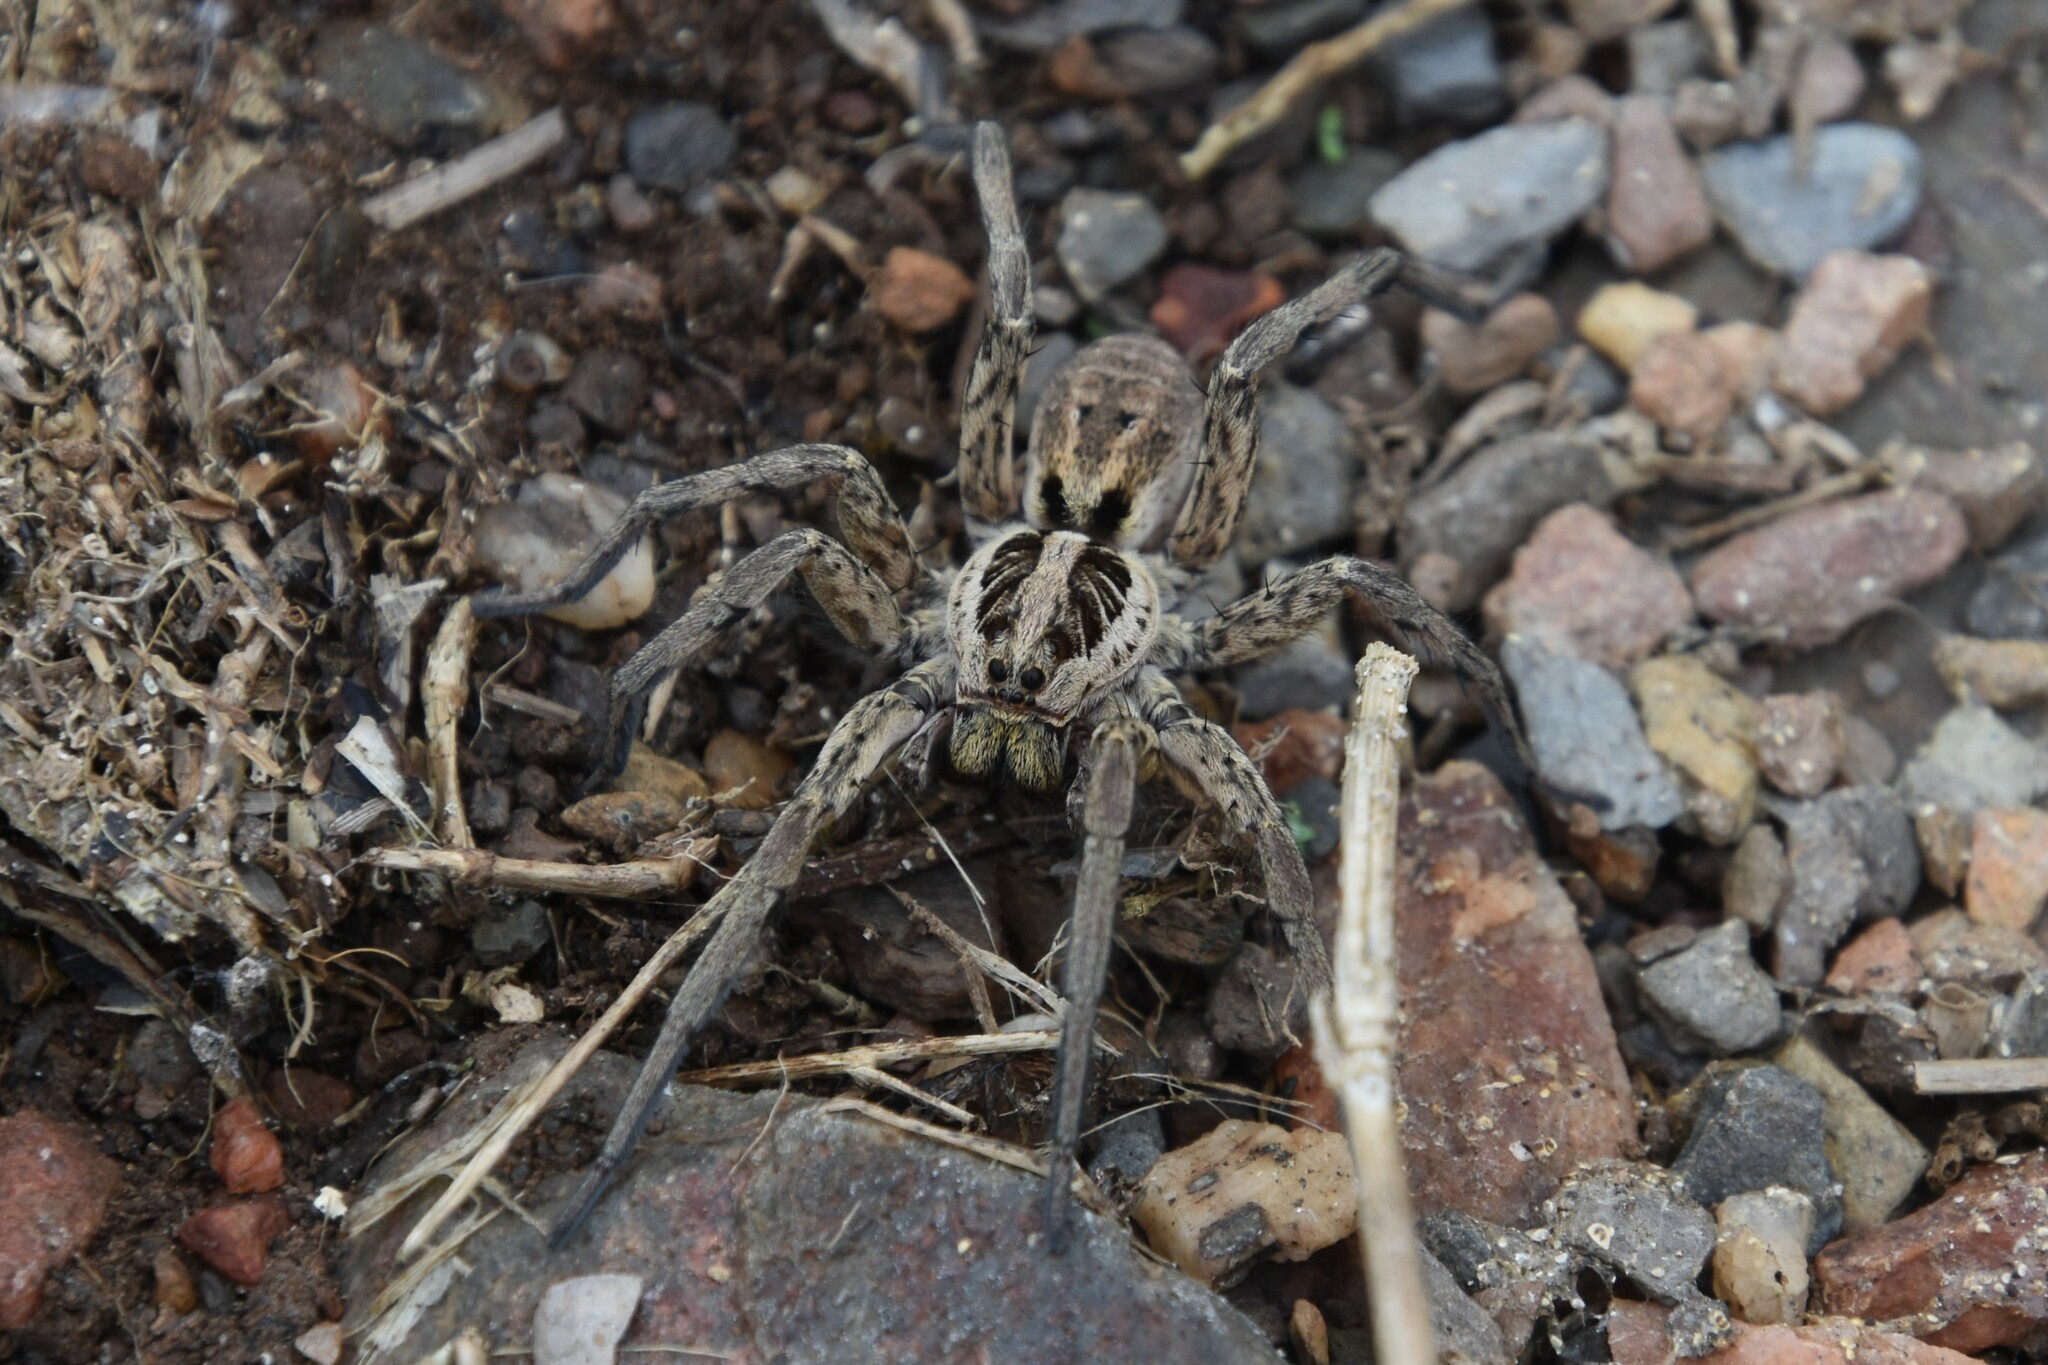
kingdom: Animalia
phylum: Arthropoda
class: Arachnida
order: Araneae
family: Lycosidae
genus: Hogna
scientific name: Hogna radiata
